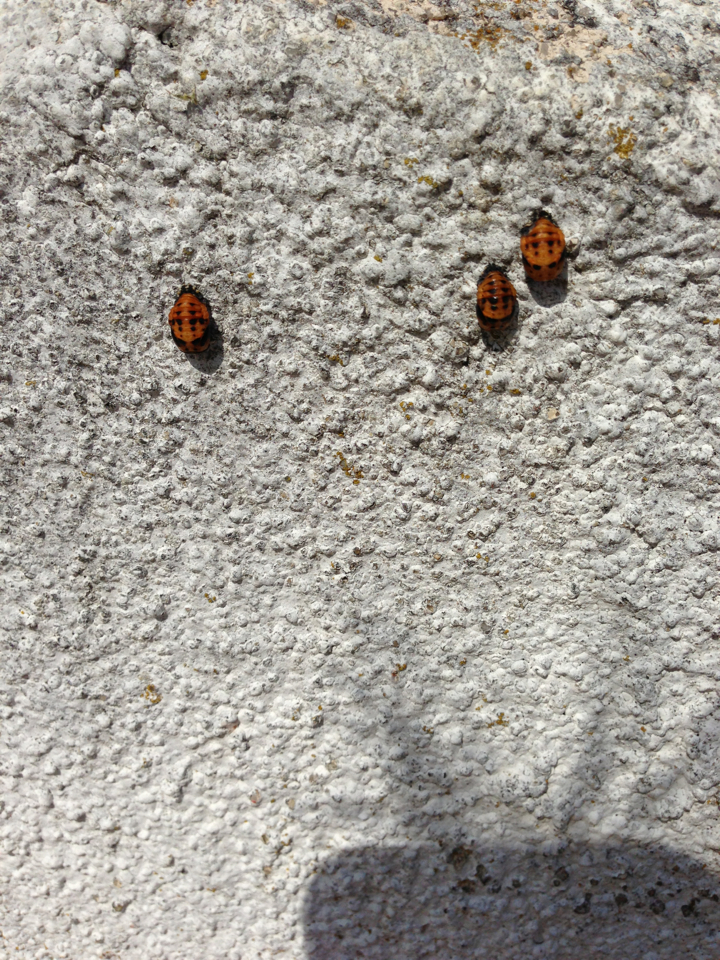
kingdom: Animalia
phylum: Arthropoda
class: Insecta
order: Coleoptera
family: Coccinellidae
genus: Coccinella
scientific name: Coccinella septempunctata
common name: Sevenspotted lady beetle
